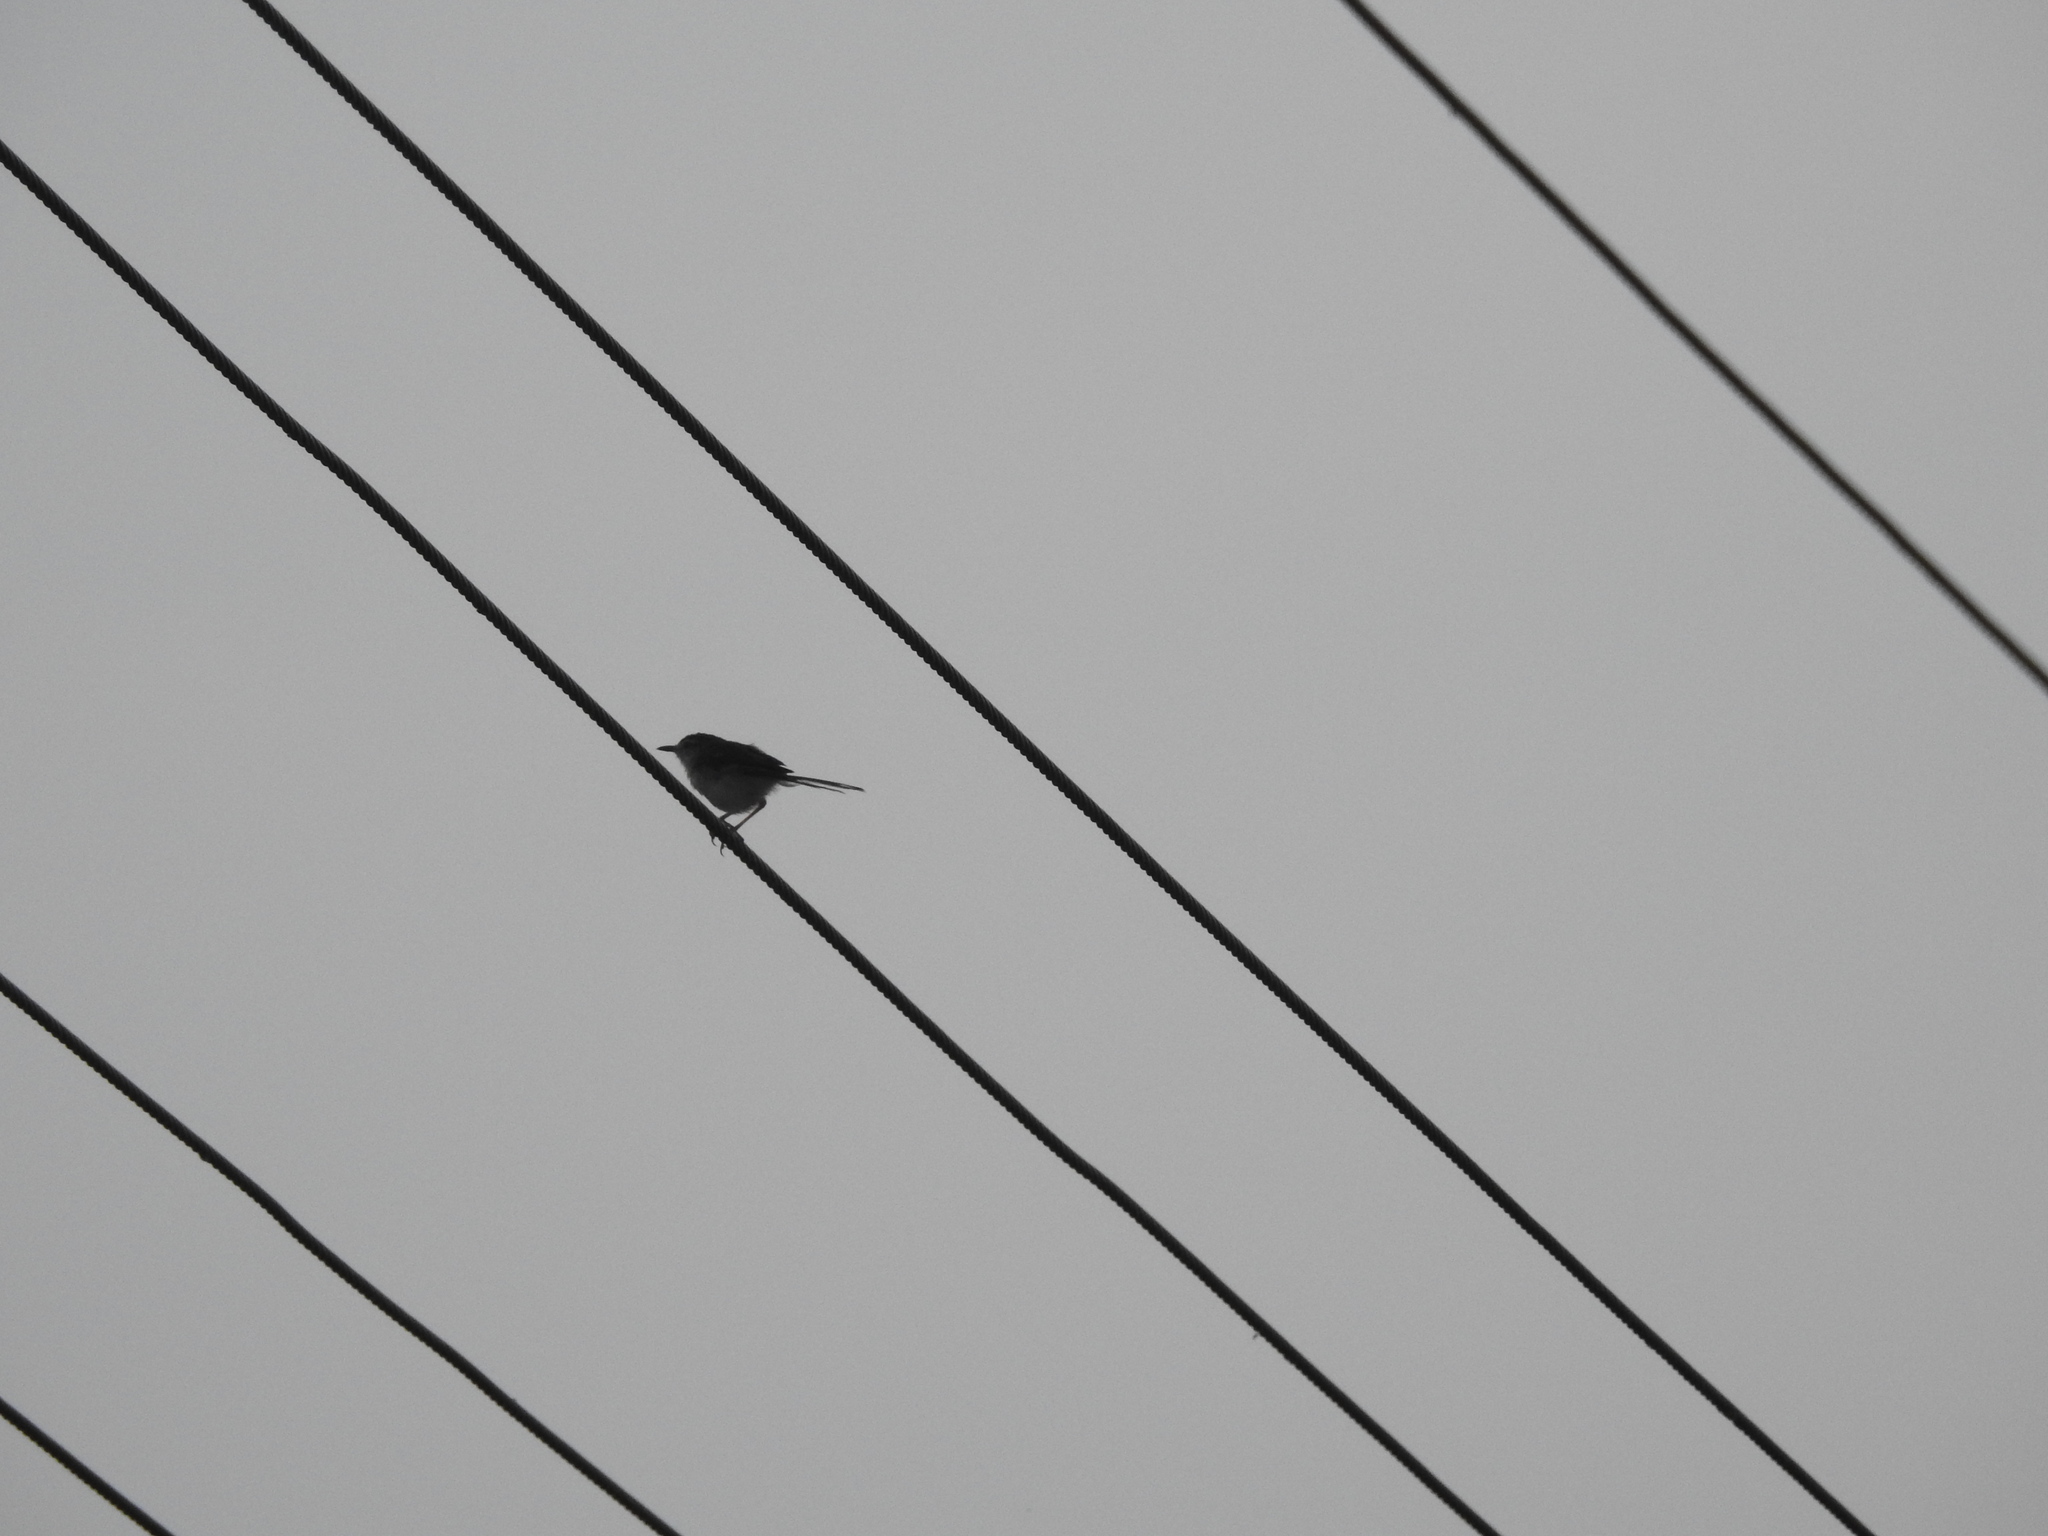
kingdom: Animalia
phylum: Chordata
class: Aves
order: Passeriformes
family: Cisticolidae
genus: Prinia
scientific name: Prinia inornata
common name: Plain prinia
